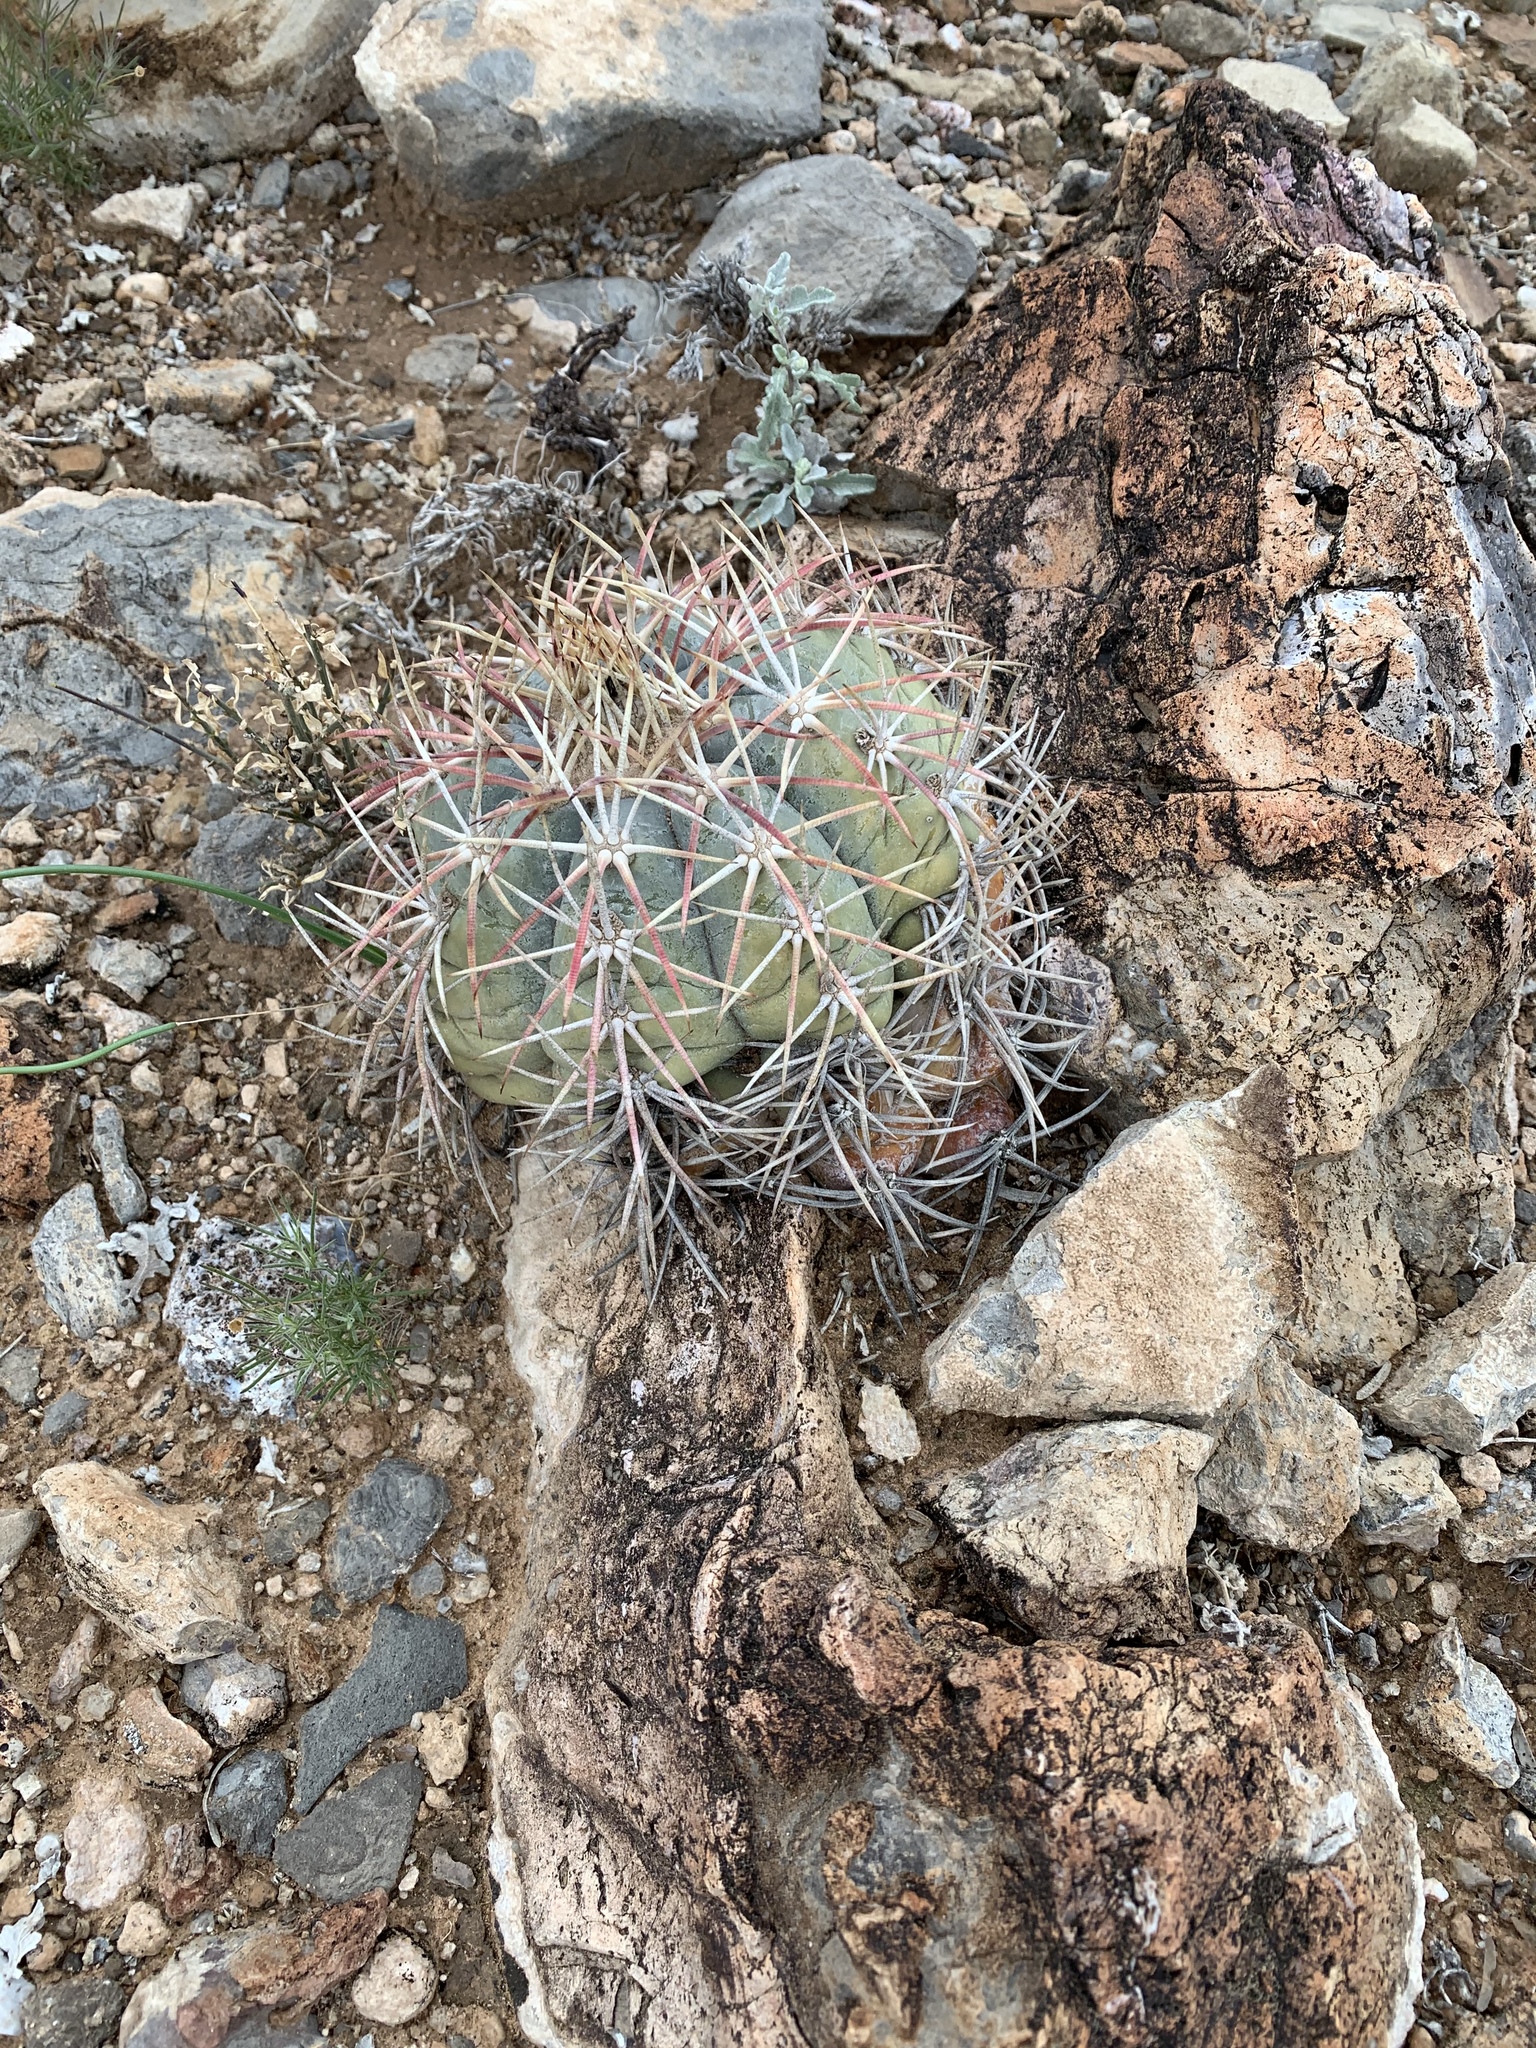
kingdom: Plantae
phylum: Tracheophyta
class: Magnoliopsida
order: Caryophyllales
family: Cactaceae
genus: Echinocactus
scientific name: Echinocactus horizonthalonius
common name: Devilshead
